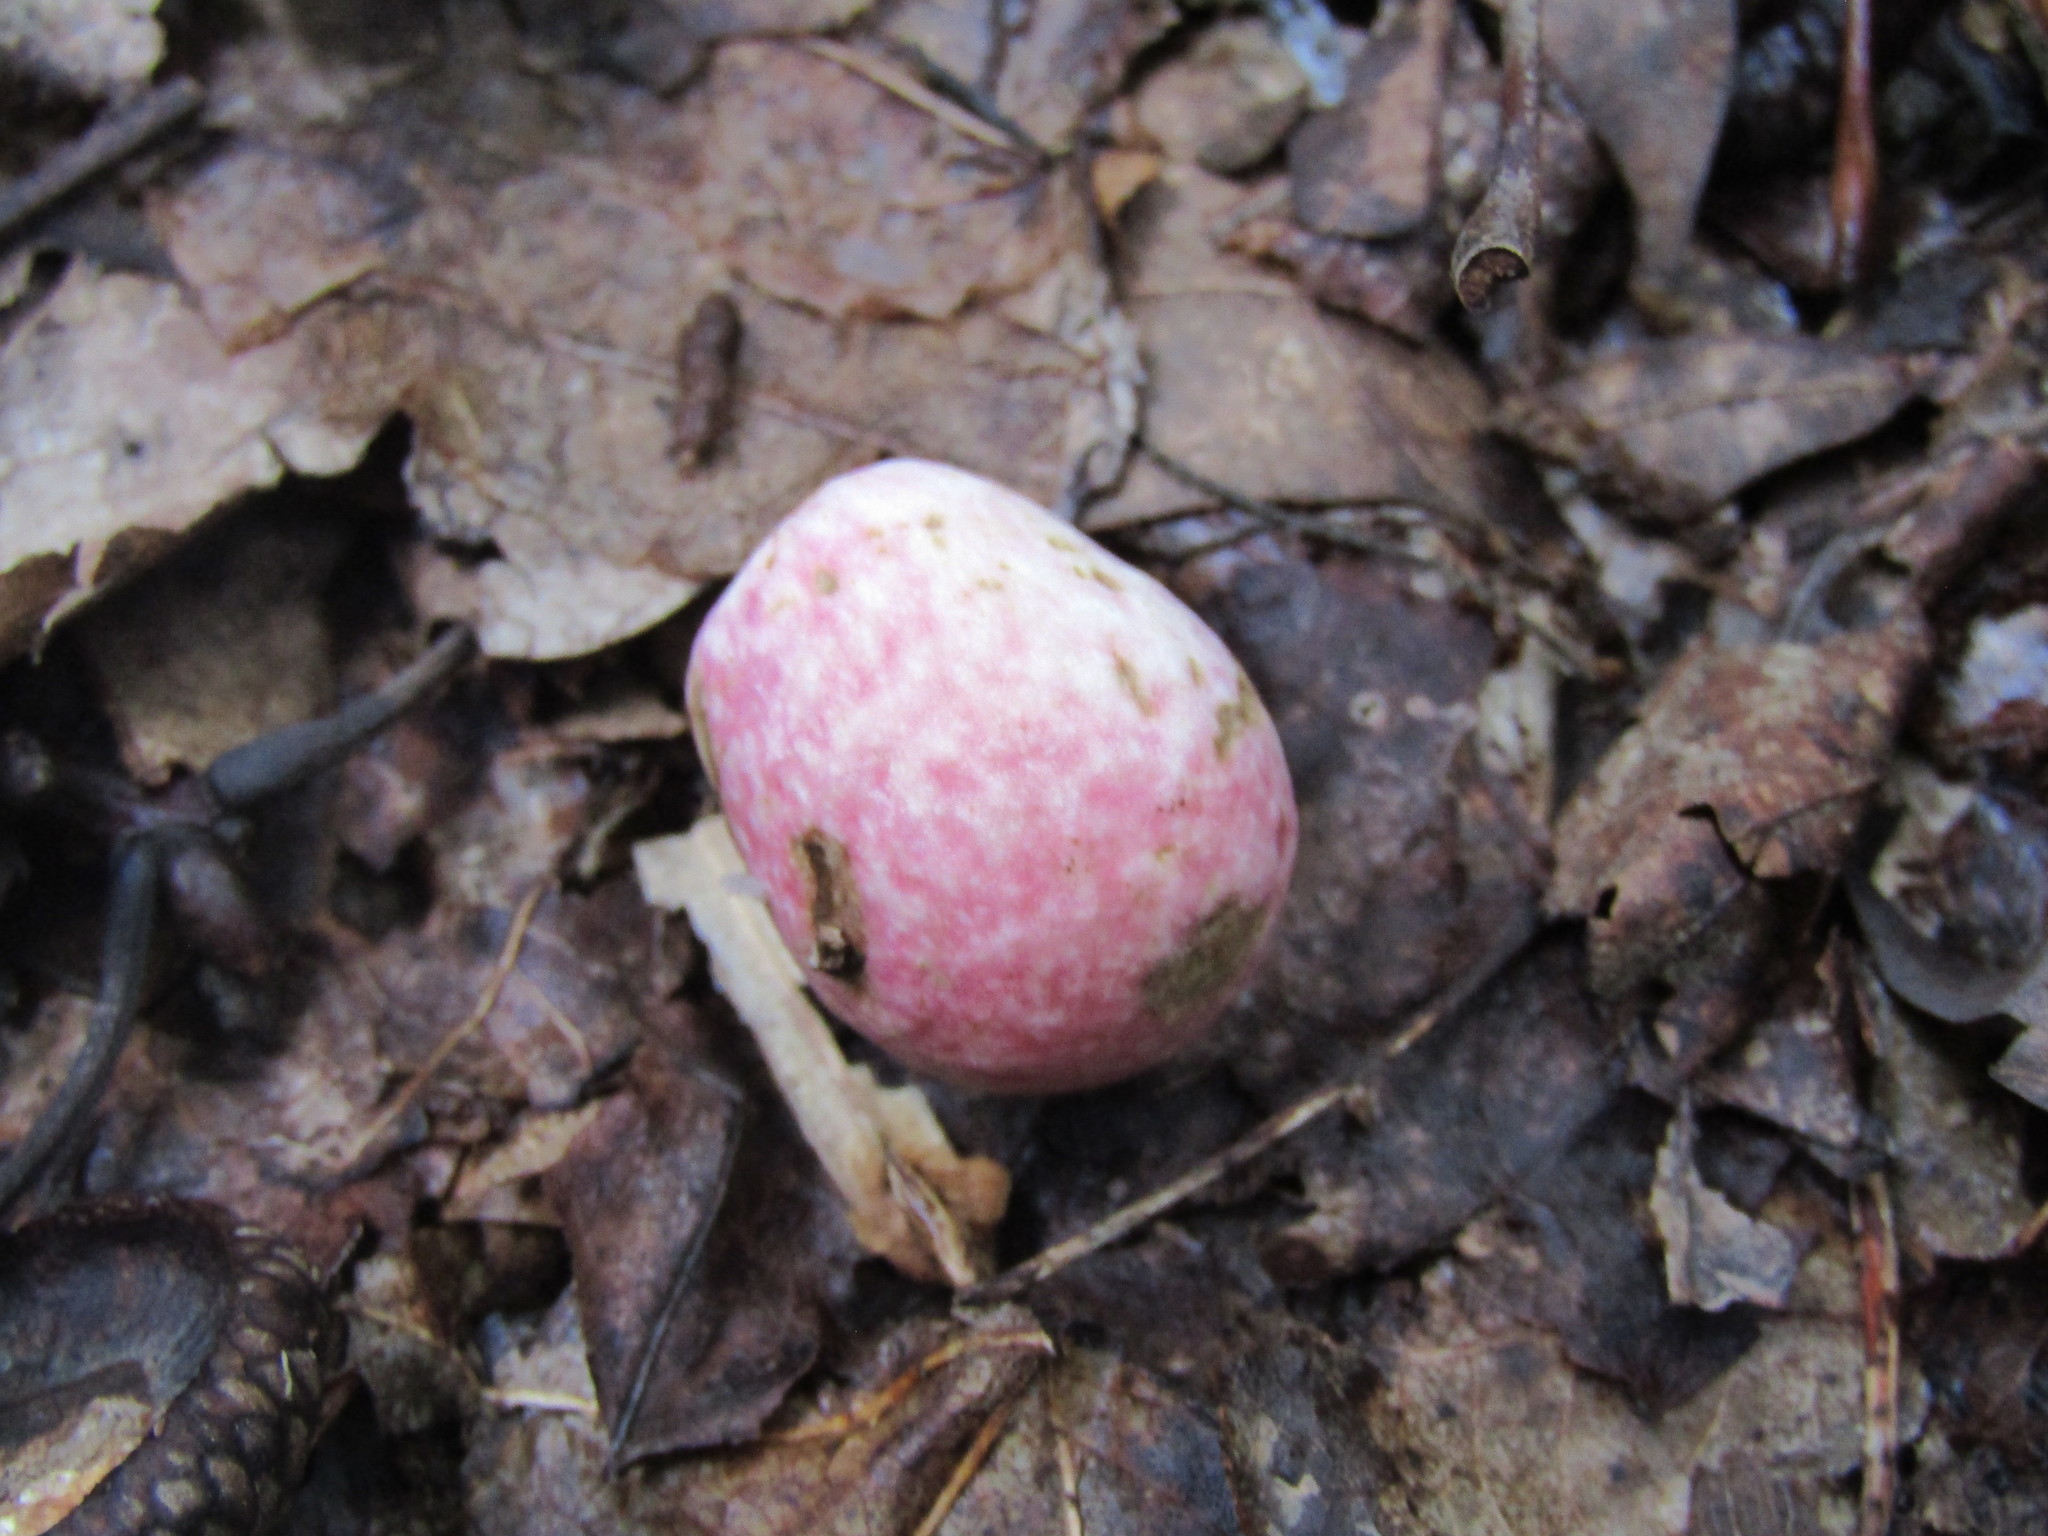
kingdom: Animalia
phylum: Arthropoda
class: Insecta
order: Hymenoptera
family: Cynipidae
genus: Amphibolips
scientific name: Amphibolips
